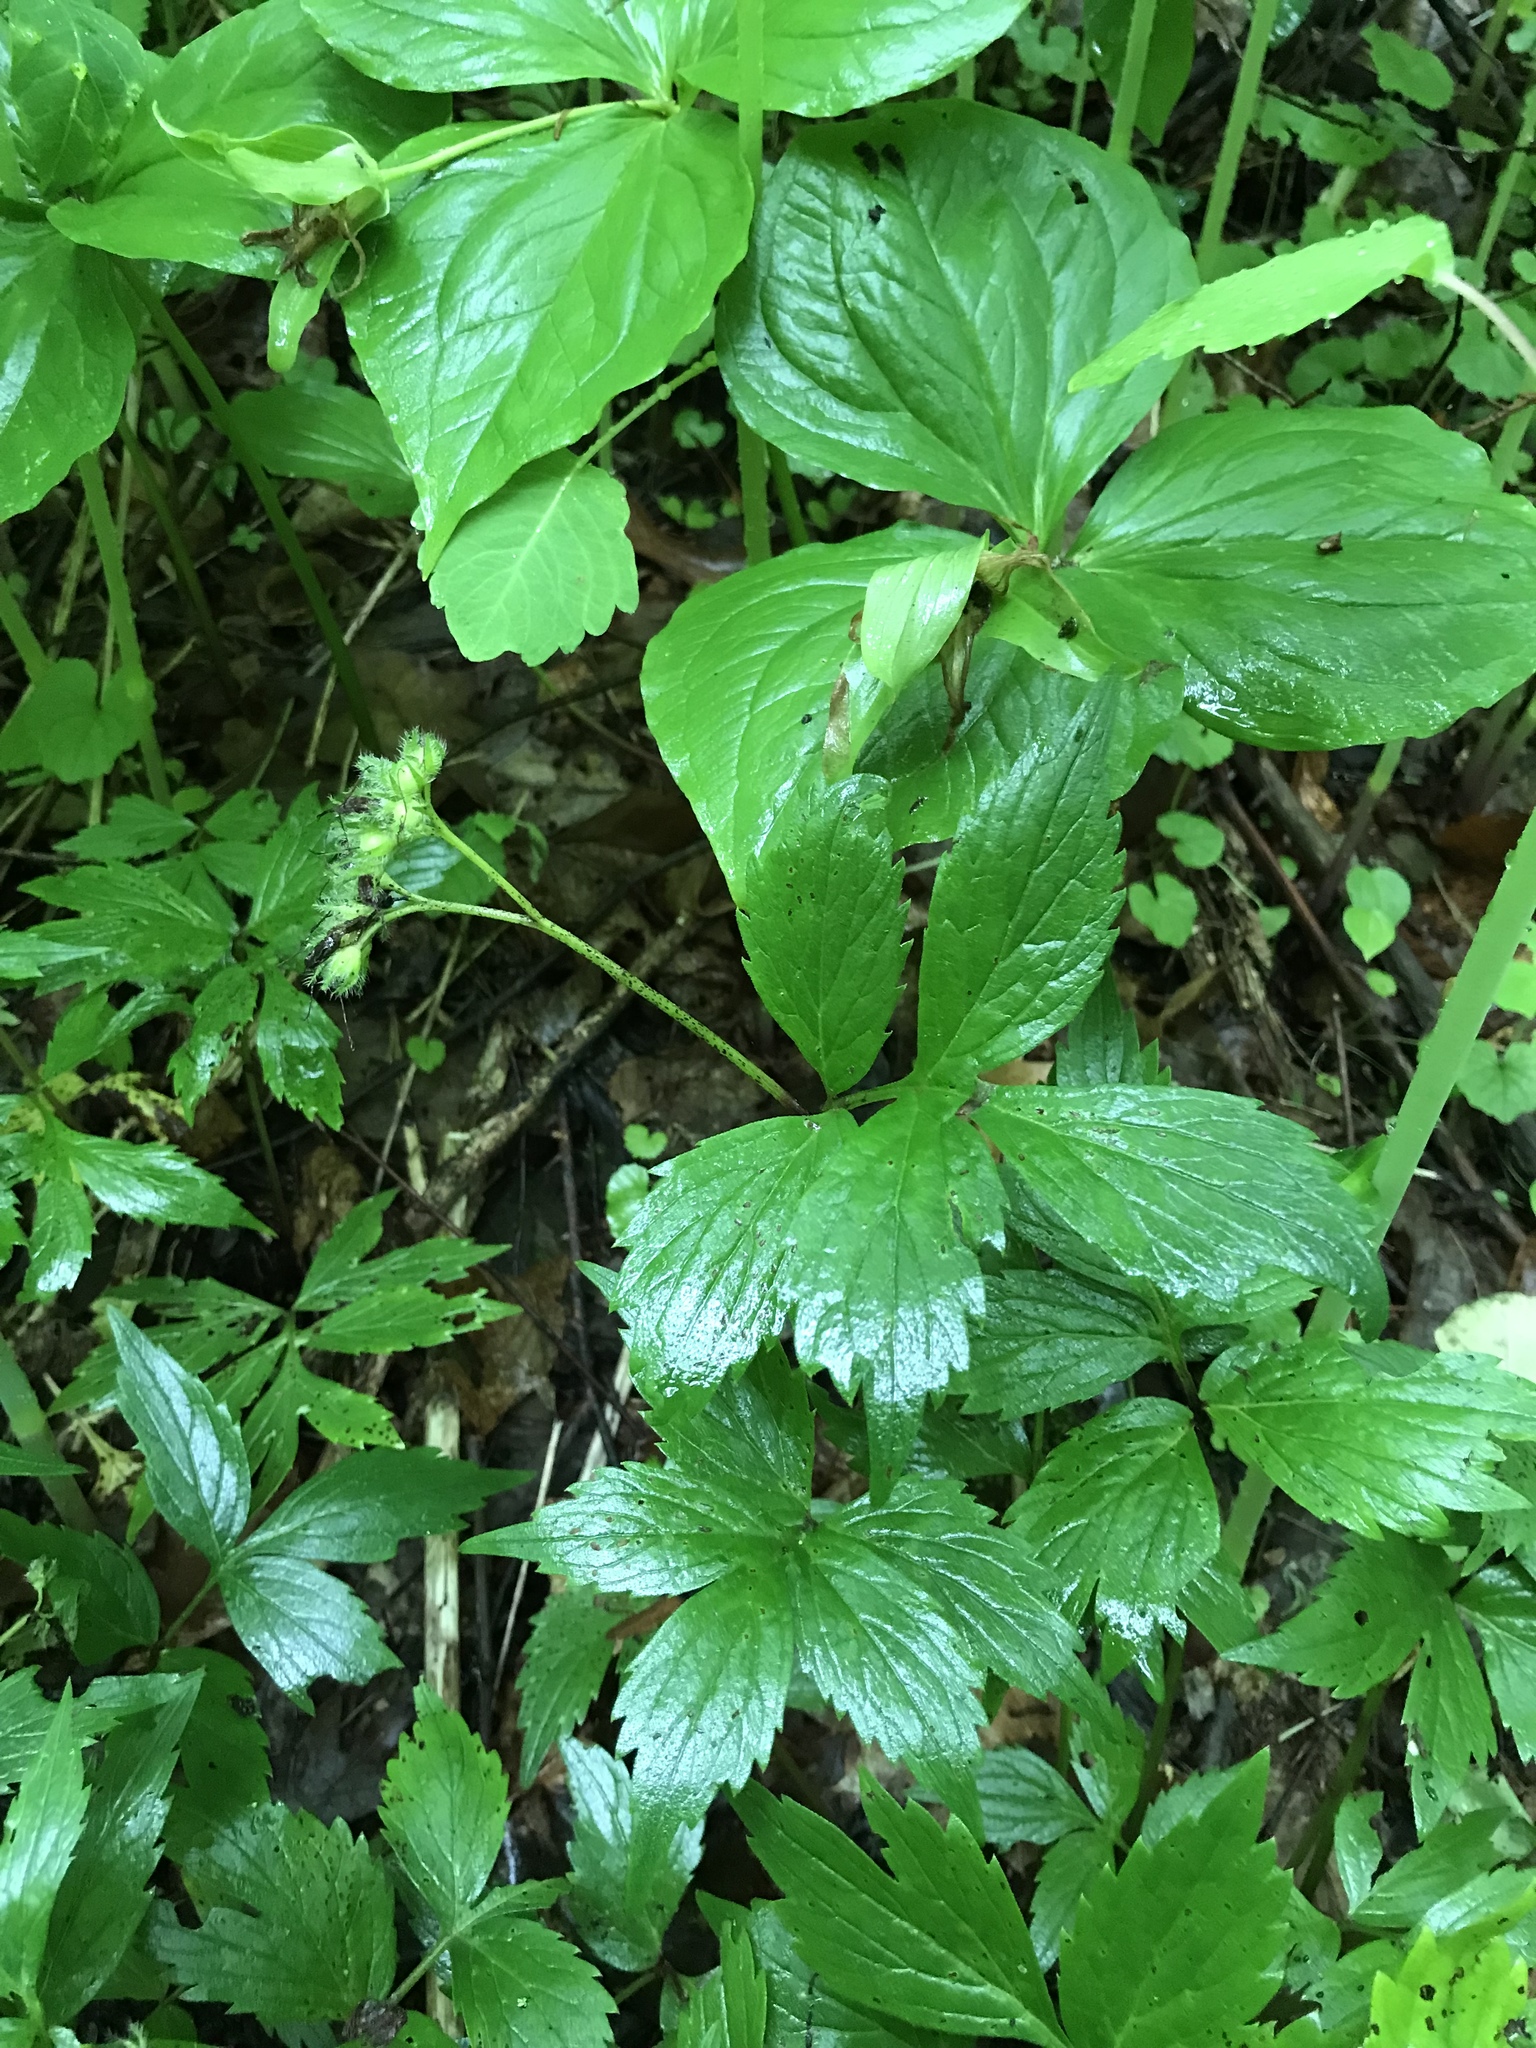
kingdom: Plantae
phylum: Tracheophyta
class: Magnoliopsida
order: Boraginales
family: Hydrophyllaceae
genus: Hydrophyllum
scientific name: Hydrophyllum virginianum
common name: Virginia waterleaf
